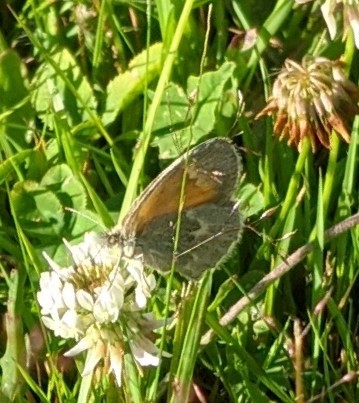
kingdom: Animalia
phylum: Arthropoda
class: Insecta
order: Lepidoptera
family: Nymphalidae
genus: Coenonympha
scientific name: Coenonympha california
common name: Common ringlet
